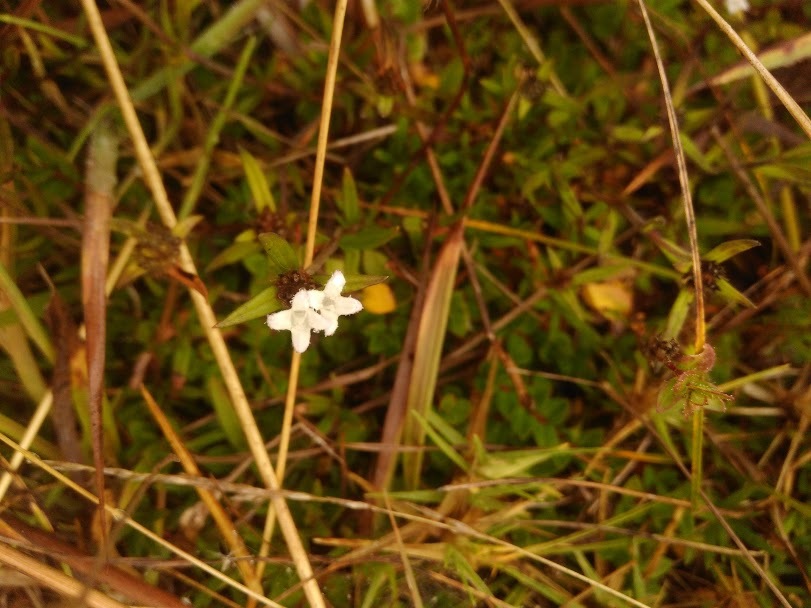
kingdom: Plantae
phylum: Tracheophyta
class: Magnoliopsida
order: Gentianales
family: Rubiaceae
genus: Spermacoce
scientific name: Spermacoce chartensis
